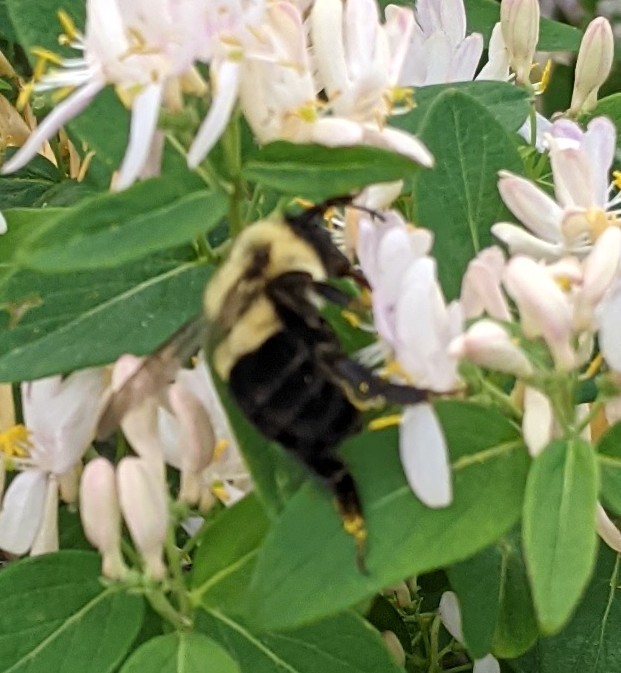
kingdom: Animalia
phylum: Arthropoda
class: Insecta
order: Hymenoptera
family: Apidae
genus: Bombus
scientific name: Bombus impatiens
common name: Common eastern bumble bee
